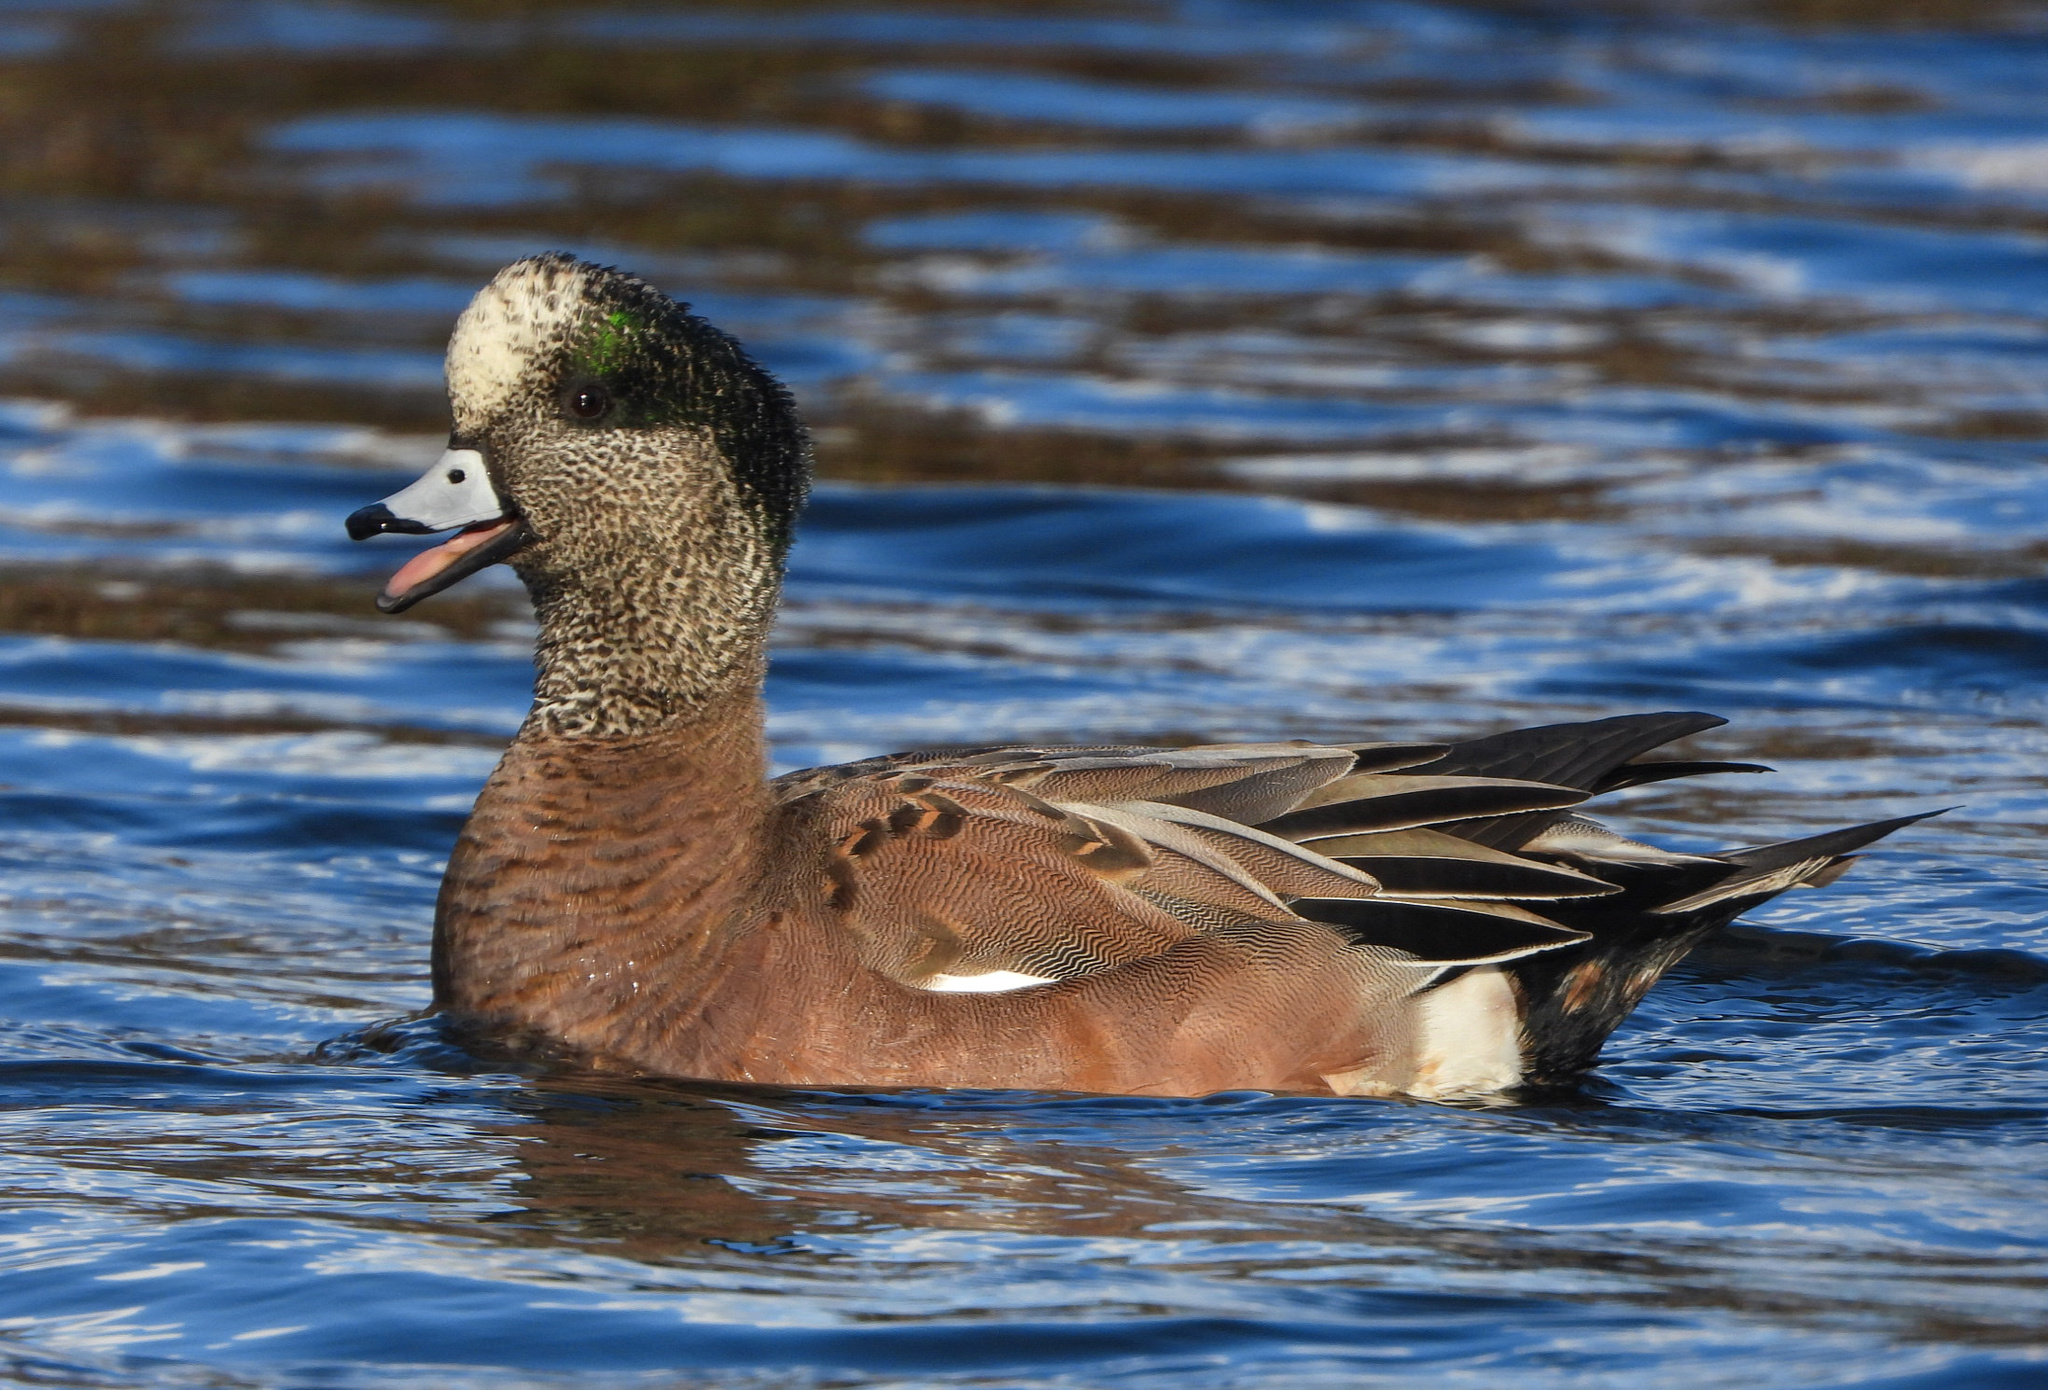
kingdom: Animalia
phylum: Chordata
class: Aves
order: Anseriformes
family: Anatidae
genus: Mareca
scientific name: Mareca americana
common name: American wigeon
